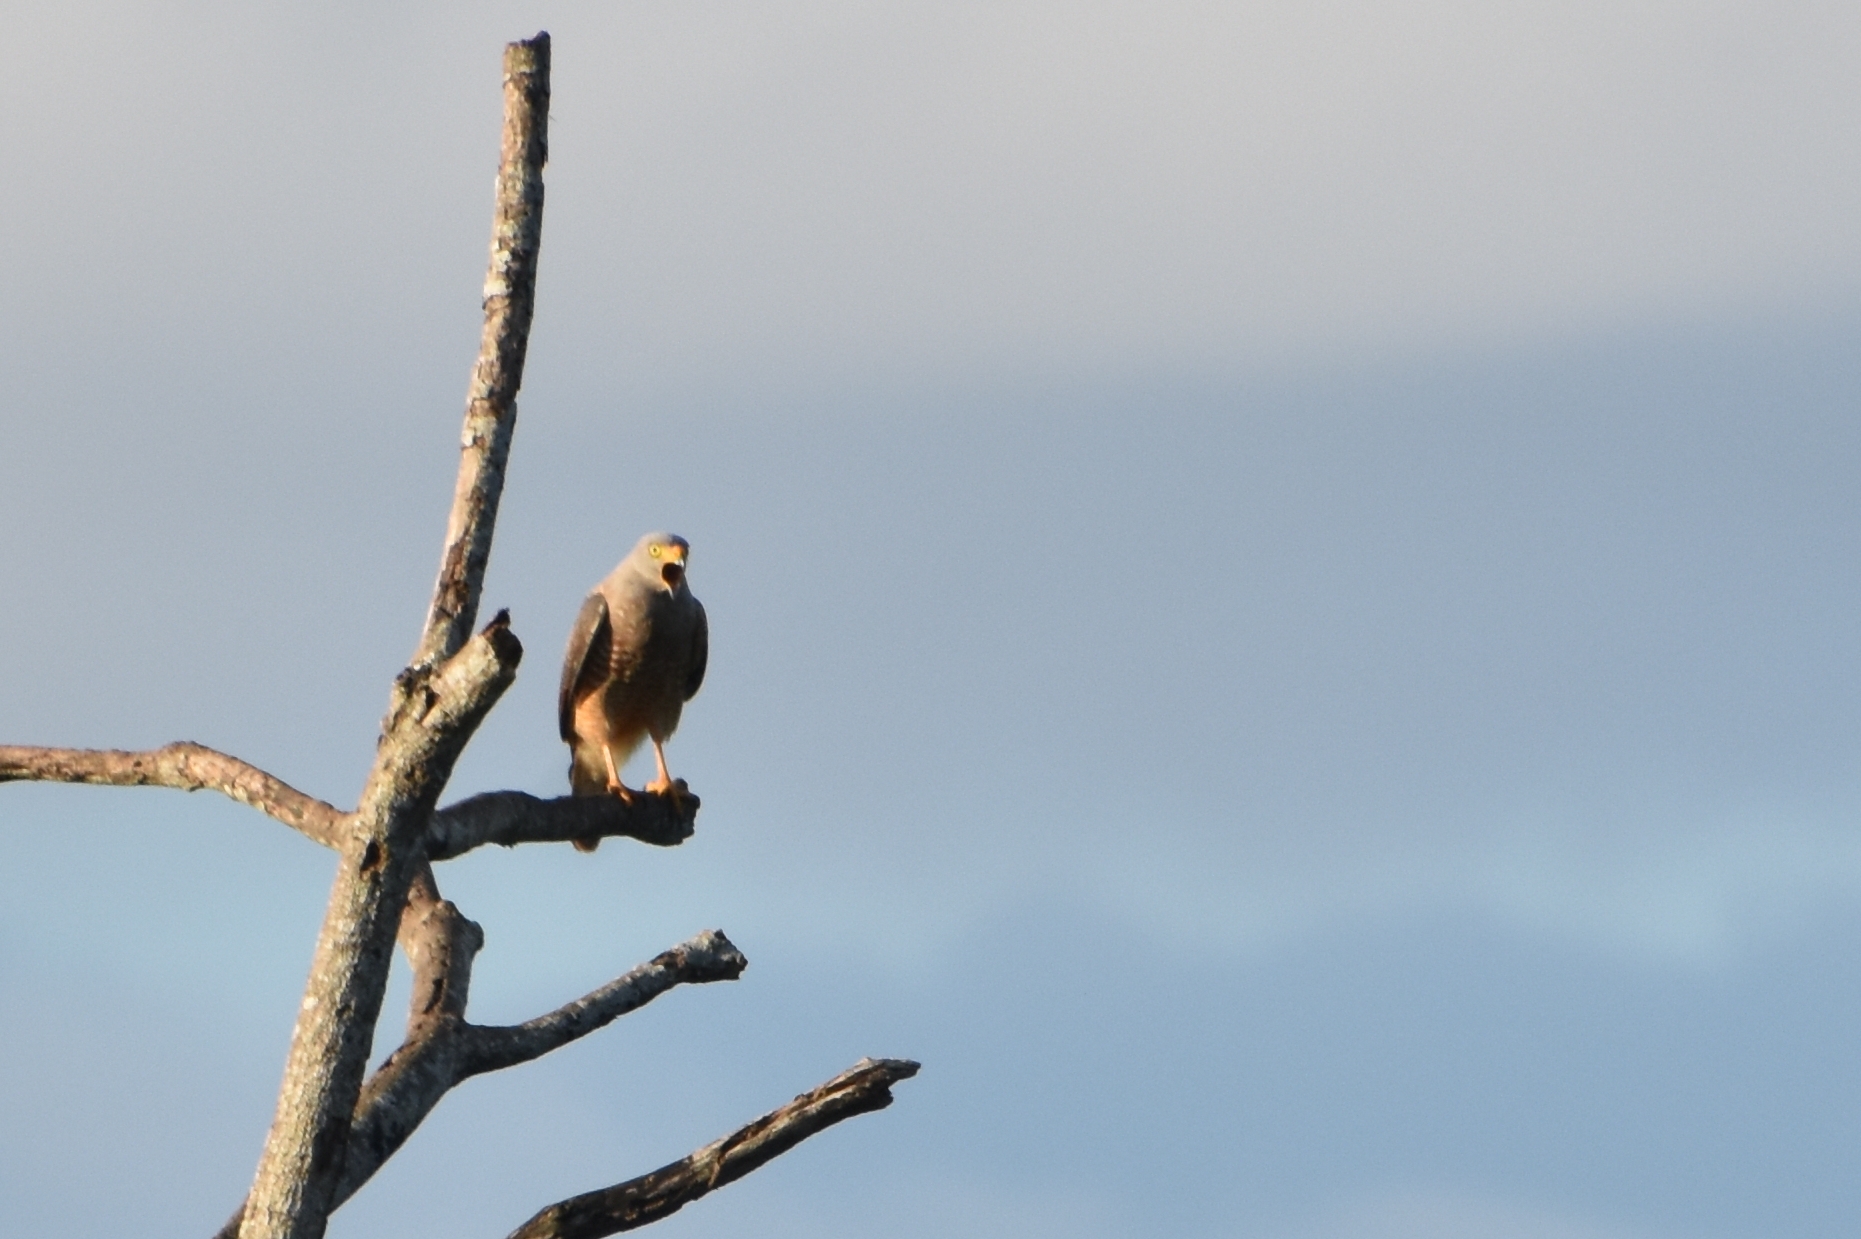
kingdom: Animalia
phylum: Chordata
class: Aves
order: Accipitriformes
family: Accipitridae
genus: Rupornis
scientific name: Rupornis magnirostris
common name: Roadside hawk
